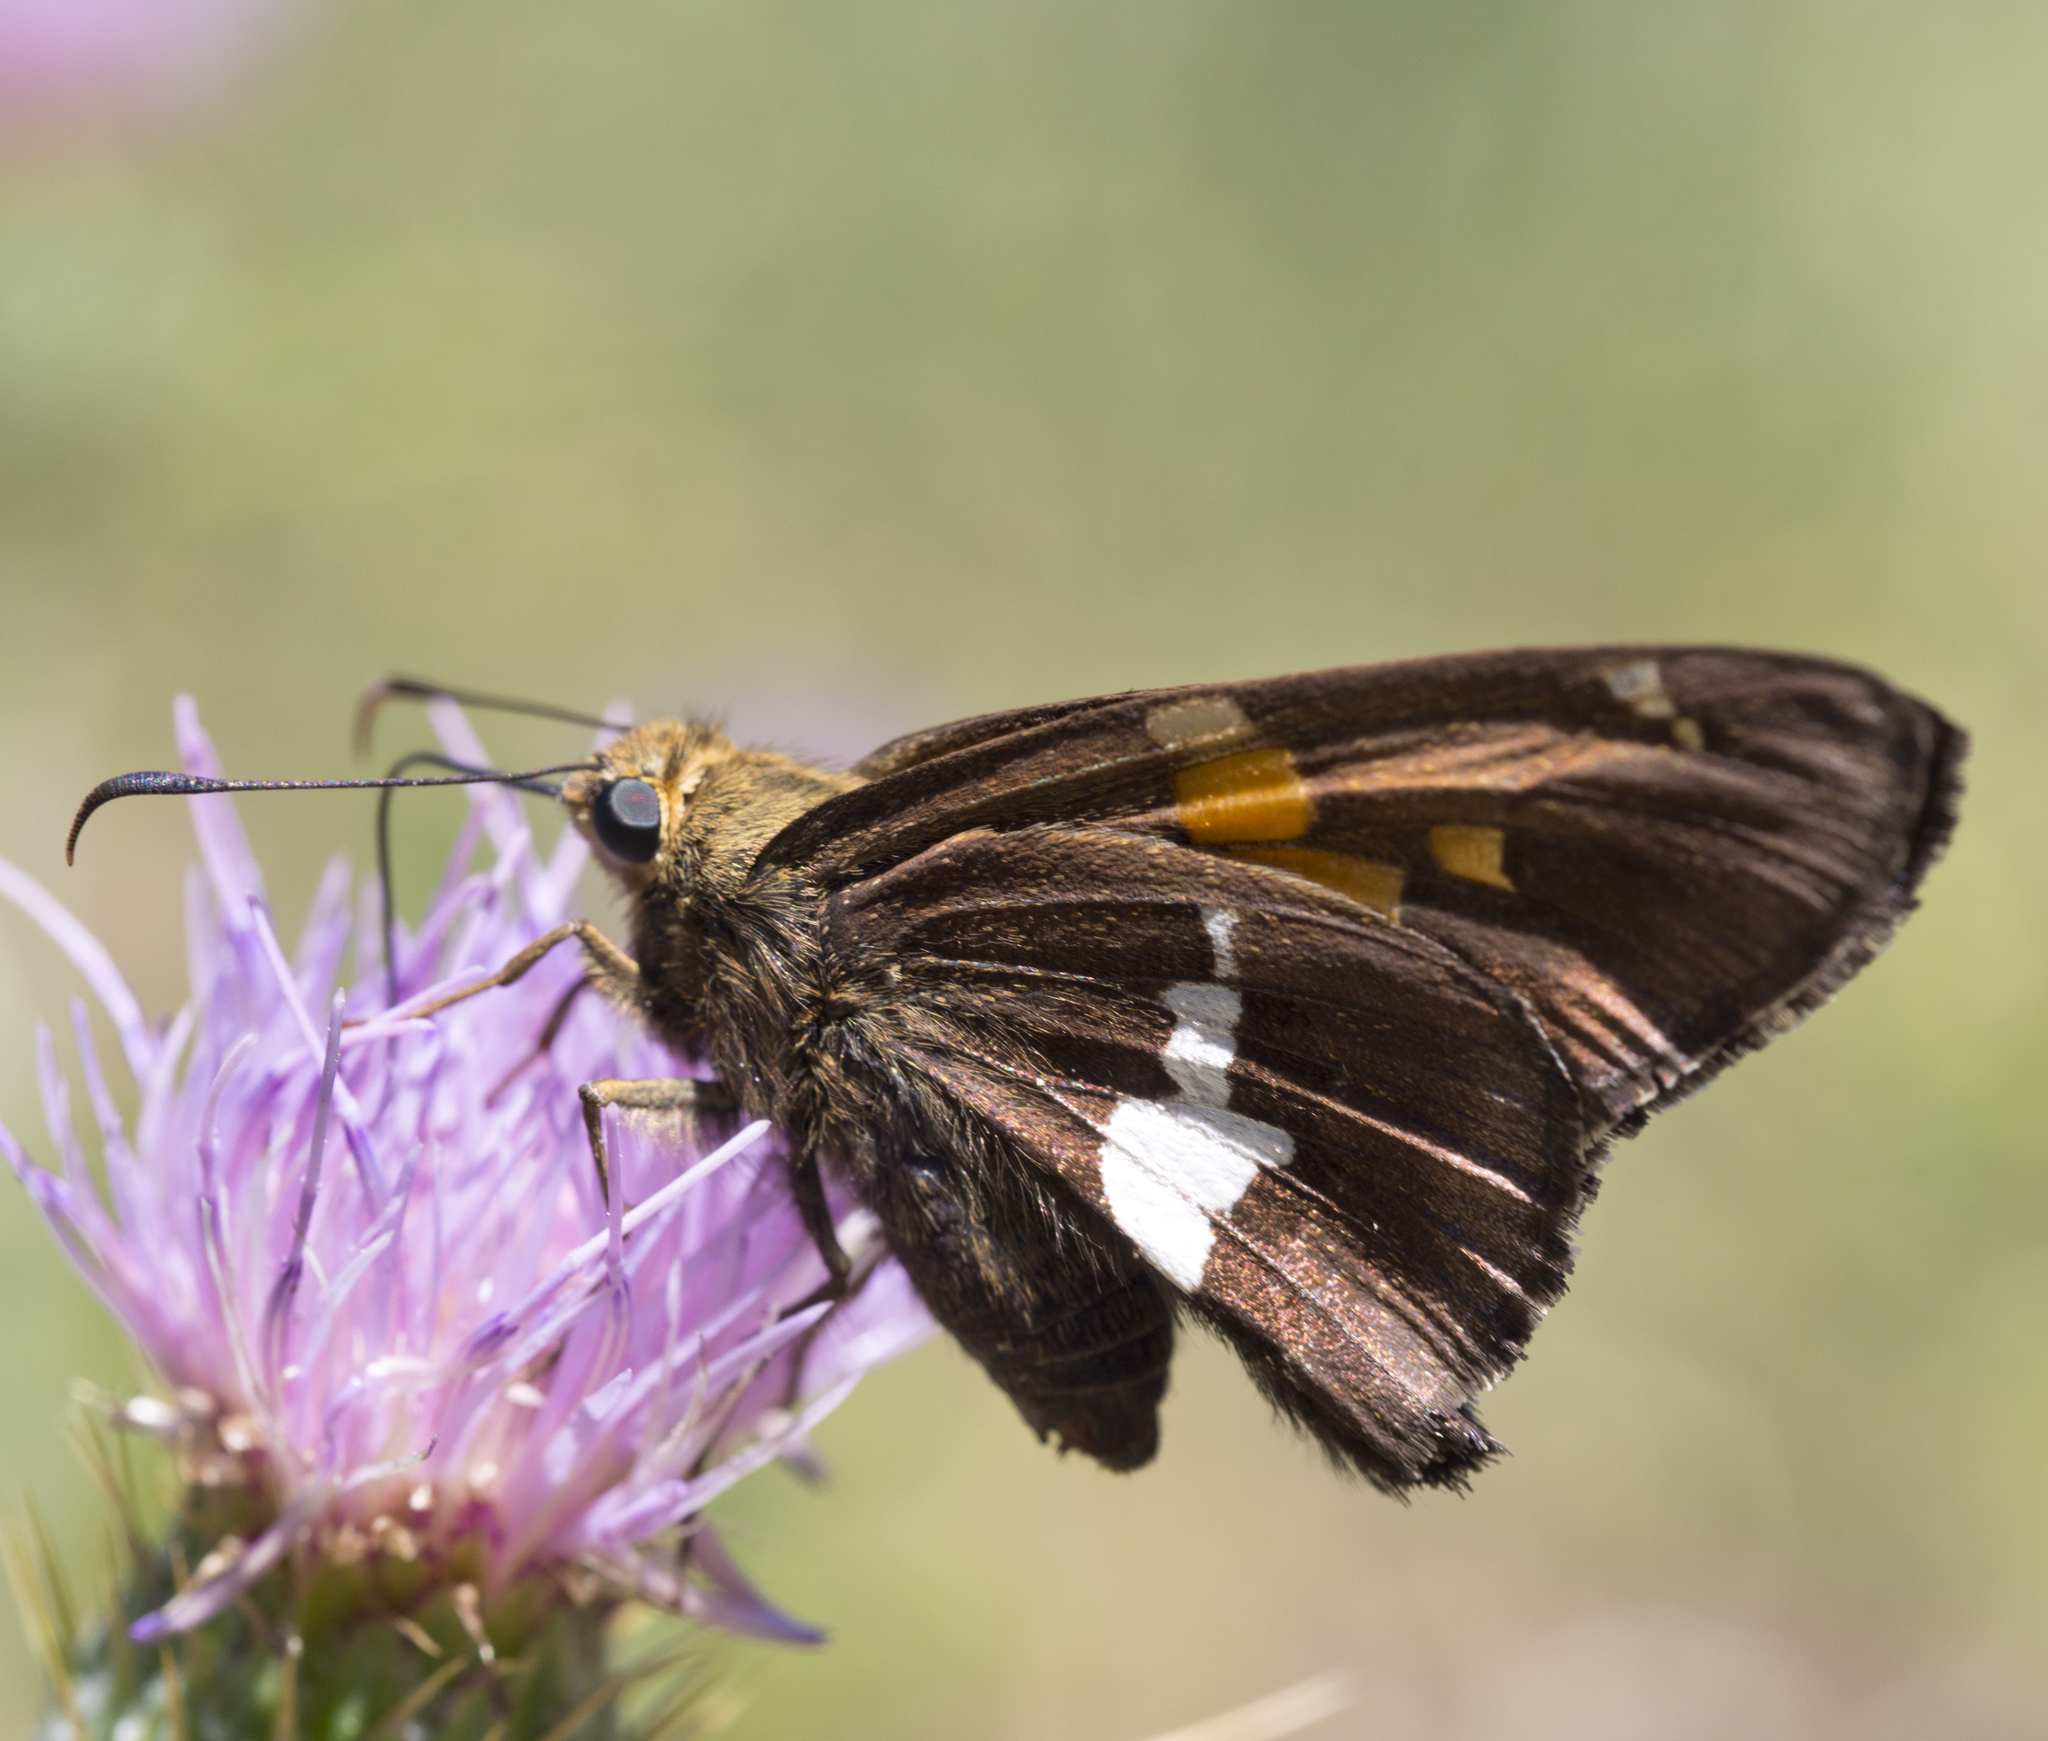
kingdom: Animalia
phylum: Arthropoda
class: Insecta
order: Lepidoptera
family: Hesperiidae
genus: Epargyreus
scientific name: Epargyreus clarus
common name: Silver-spotted skipper
